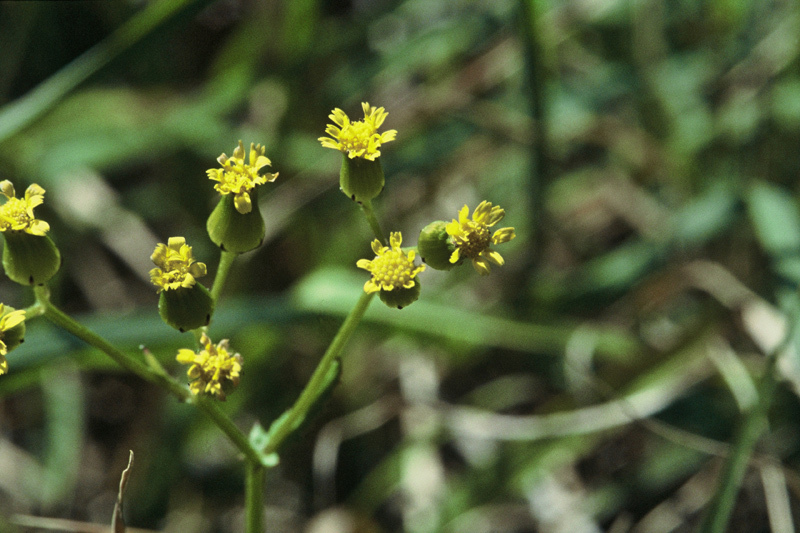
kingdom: Plantae
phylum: Tracheophyta
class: Magnoliopsida
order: Asterales
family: Asteraceae
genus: Senecio
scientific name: Senecio repangae
